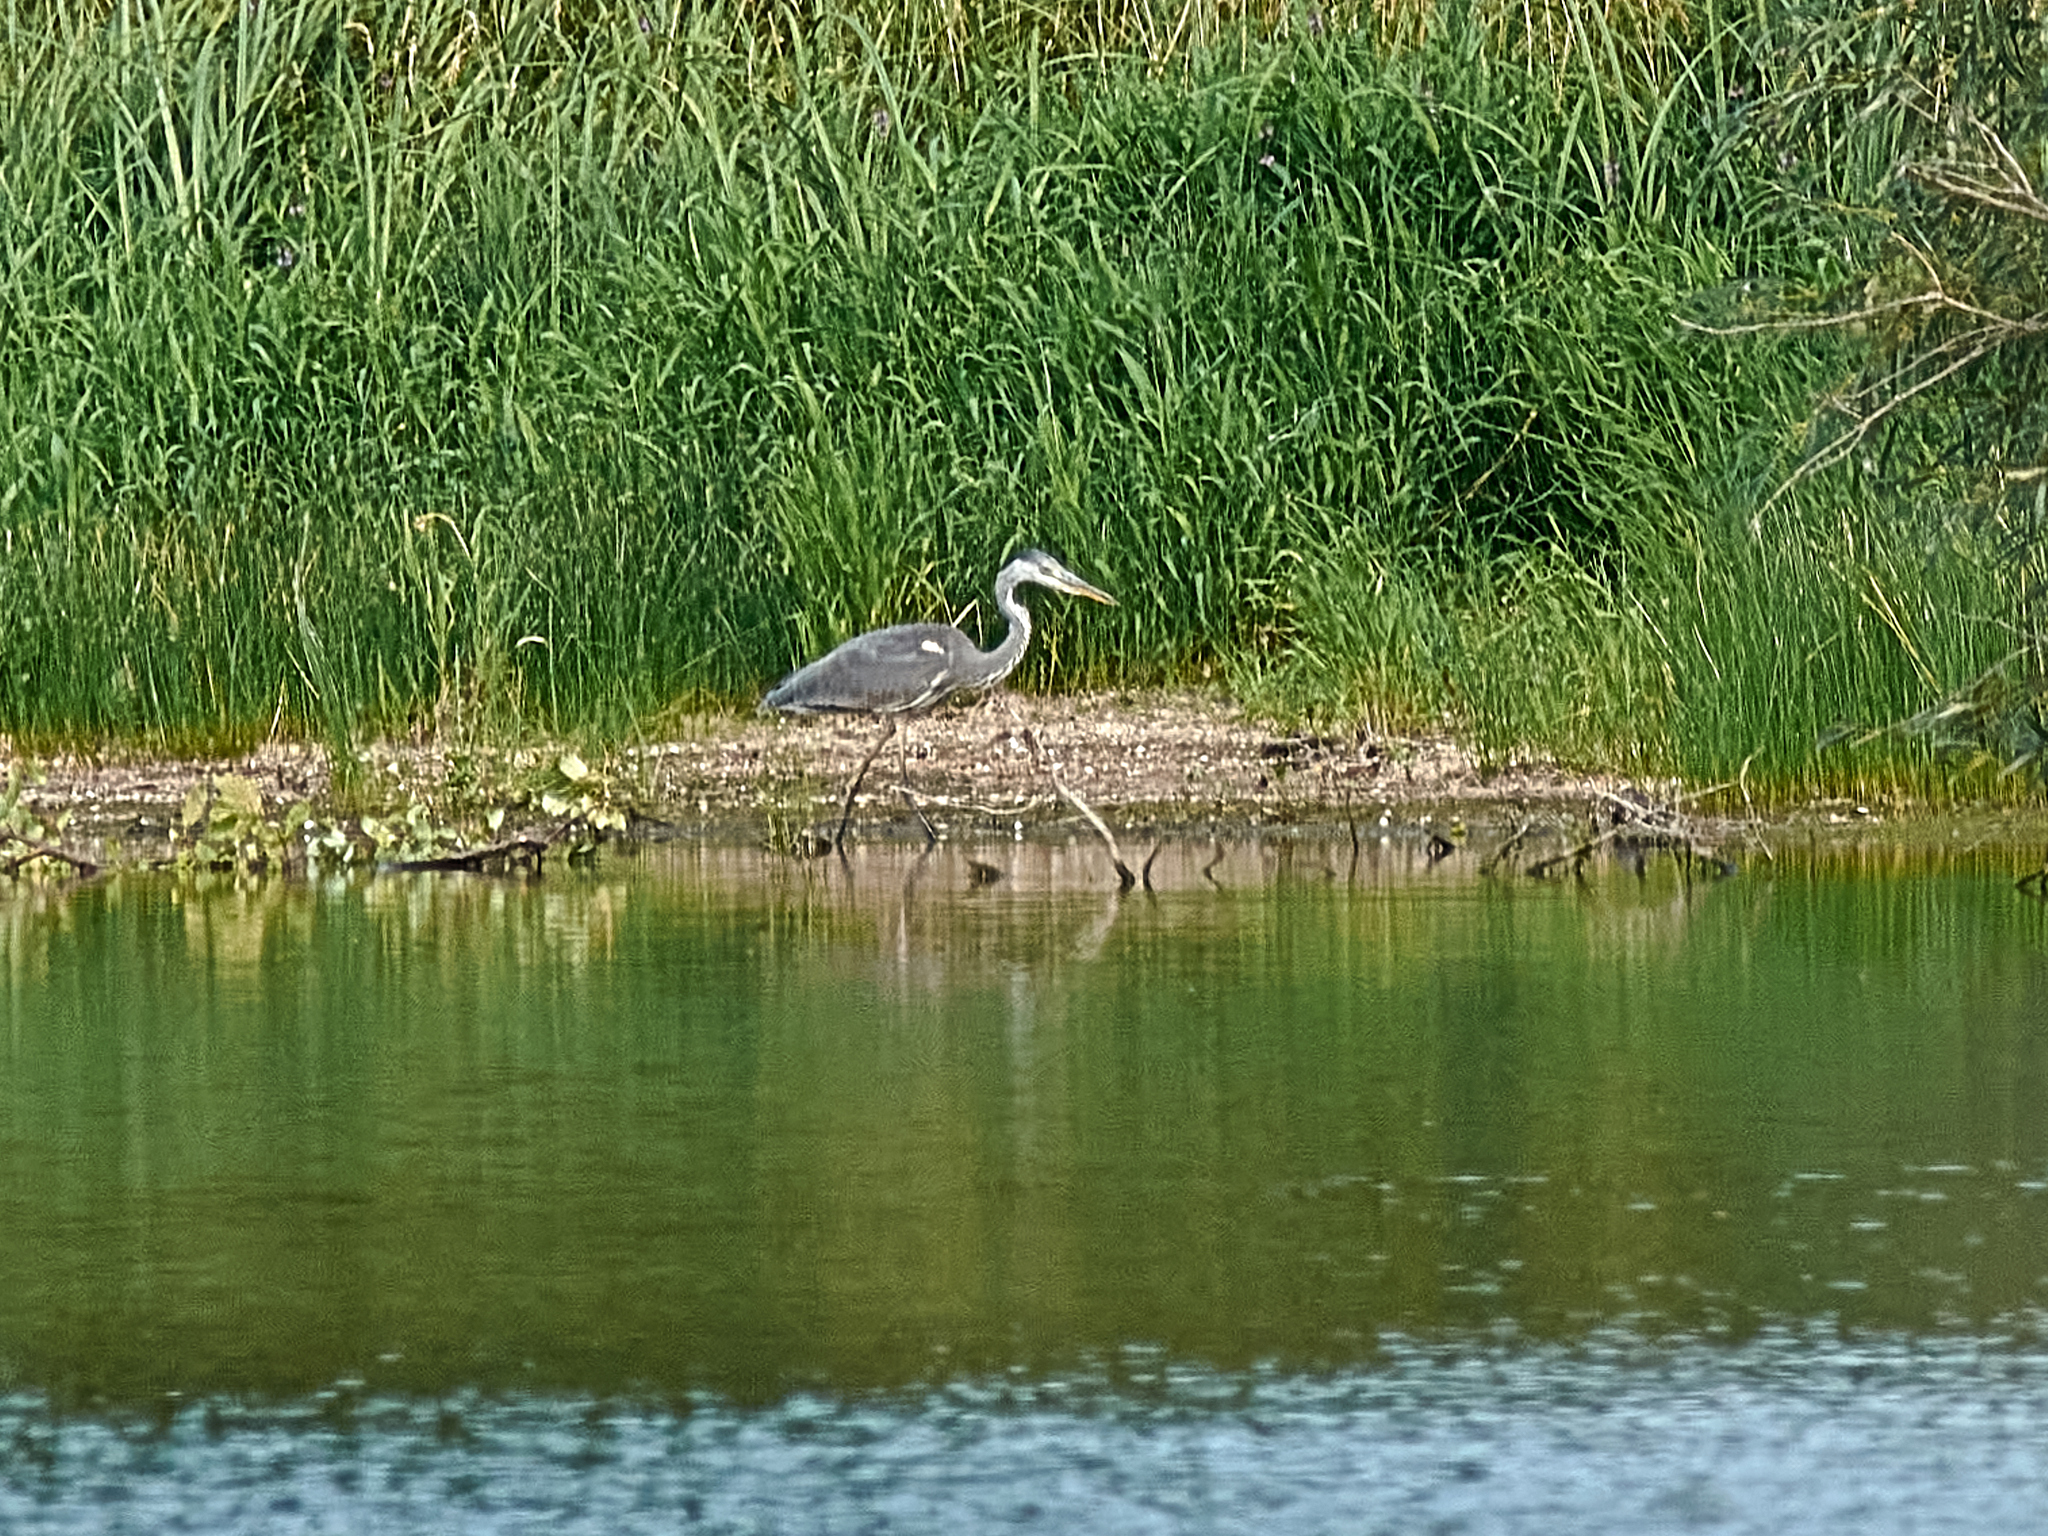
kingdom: Animalia
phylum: Chordata
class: Aves
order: Pelecaniformes
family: Ardeidae
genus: Ardea
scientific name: Ardea cinerea
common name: Grey heron
